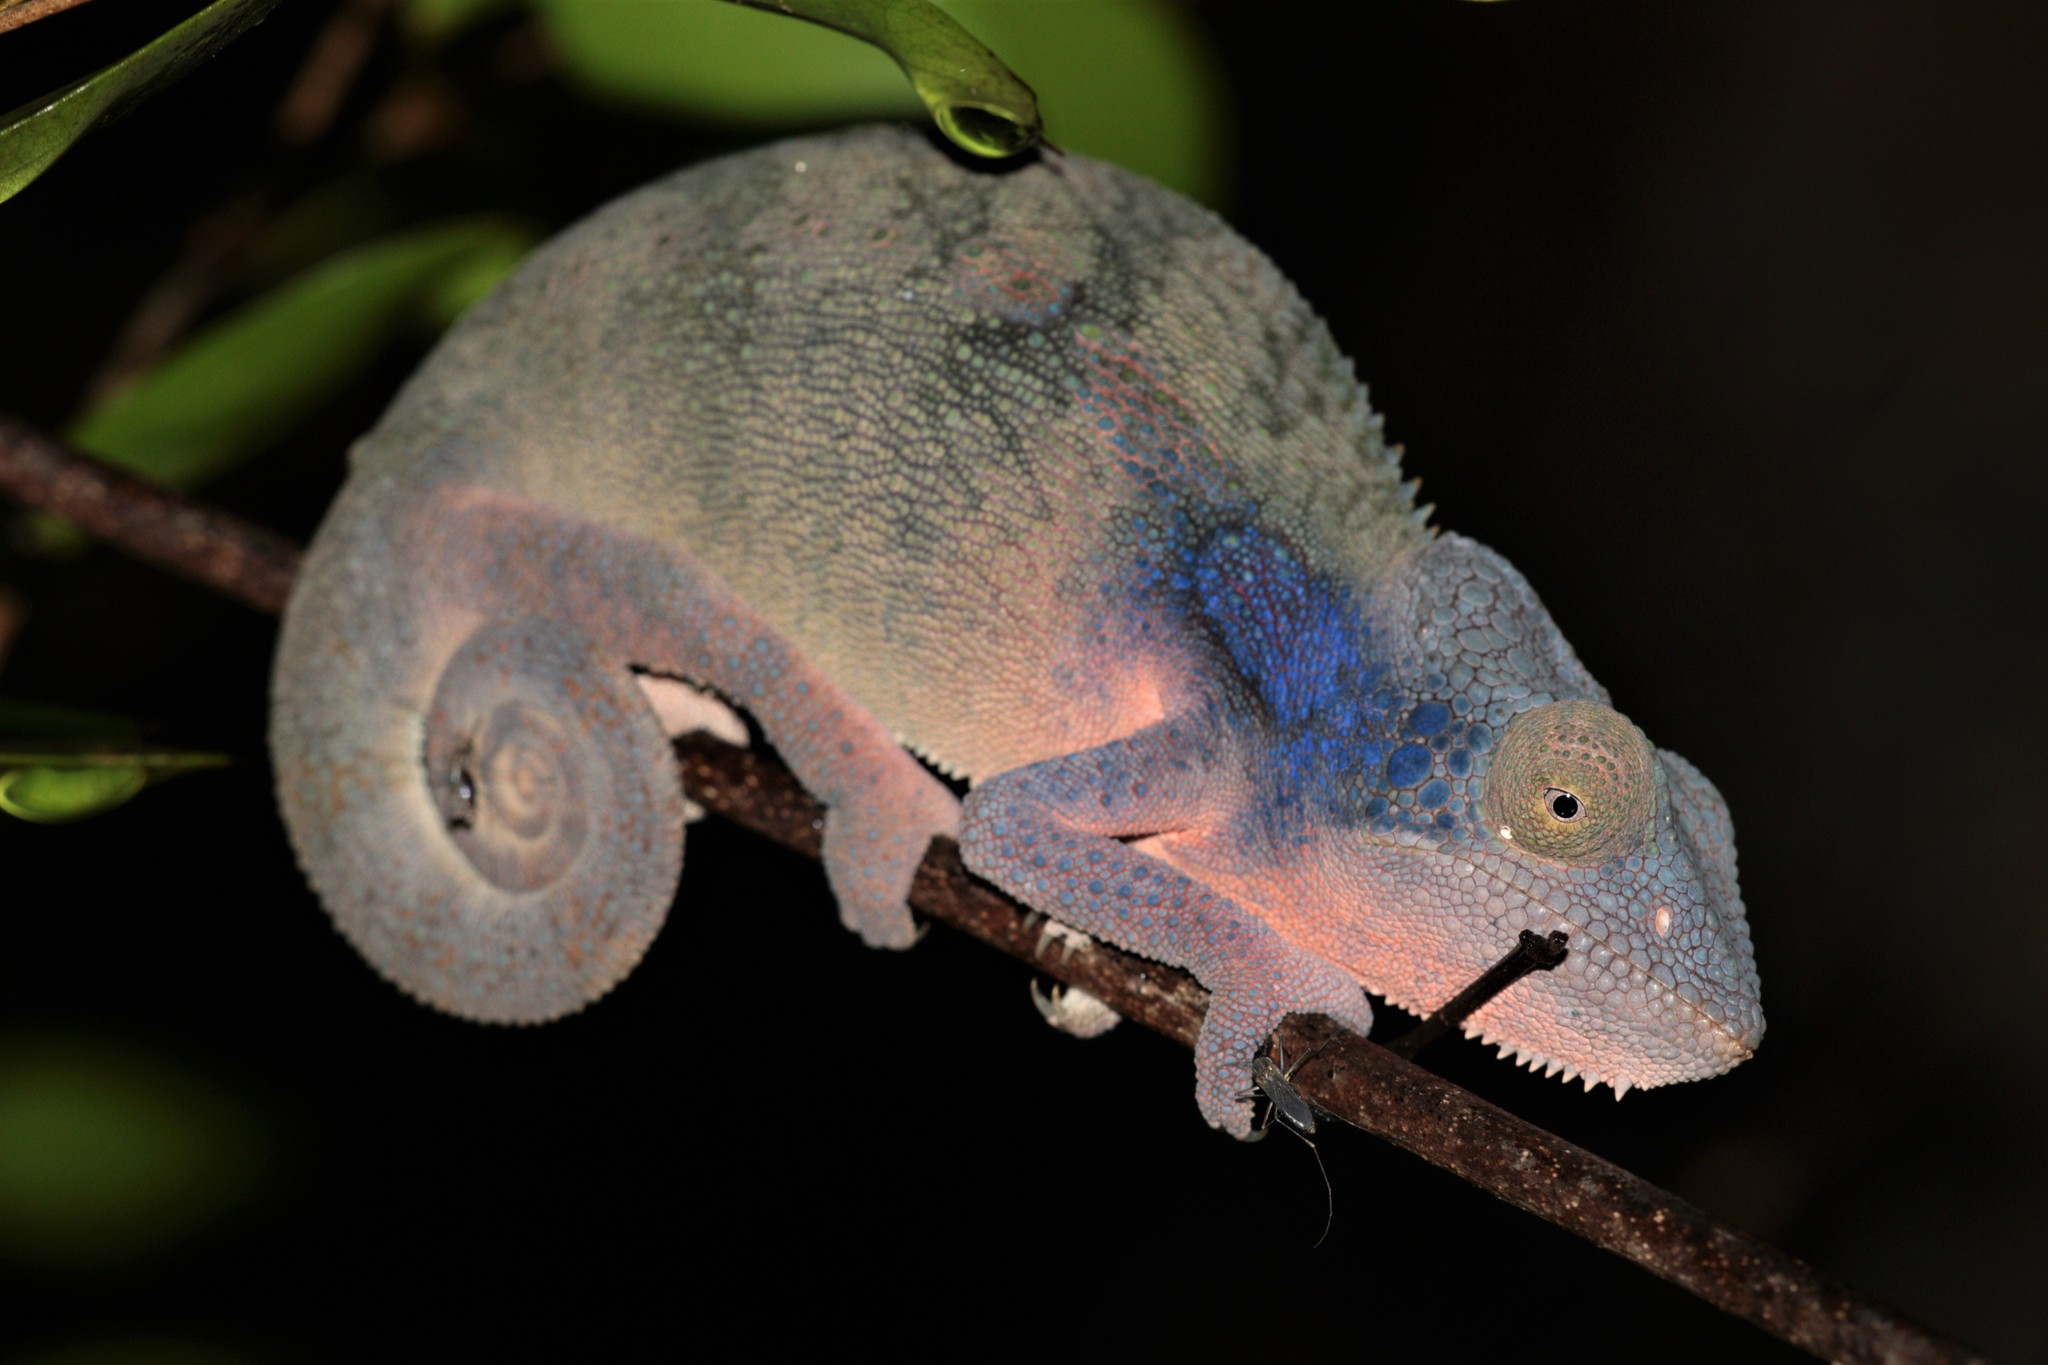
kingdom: Animalia
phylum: Chordata
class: Squamata
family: Chamaeleonidae
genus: Furcifer
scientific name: Furcifer nicosiai
